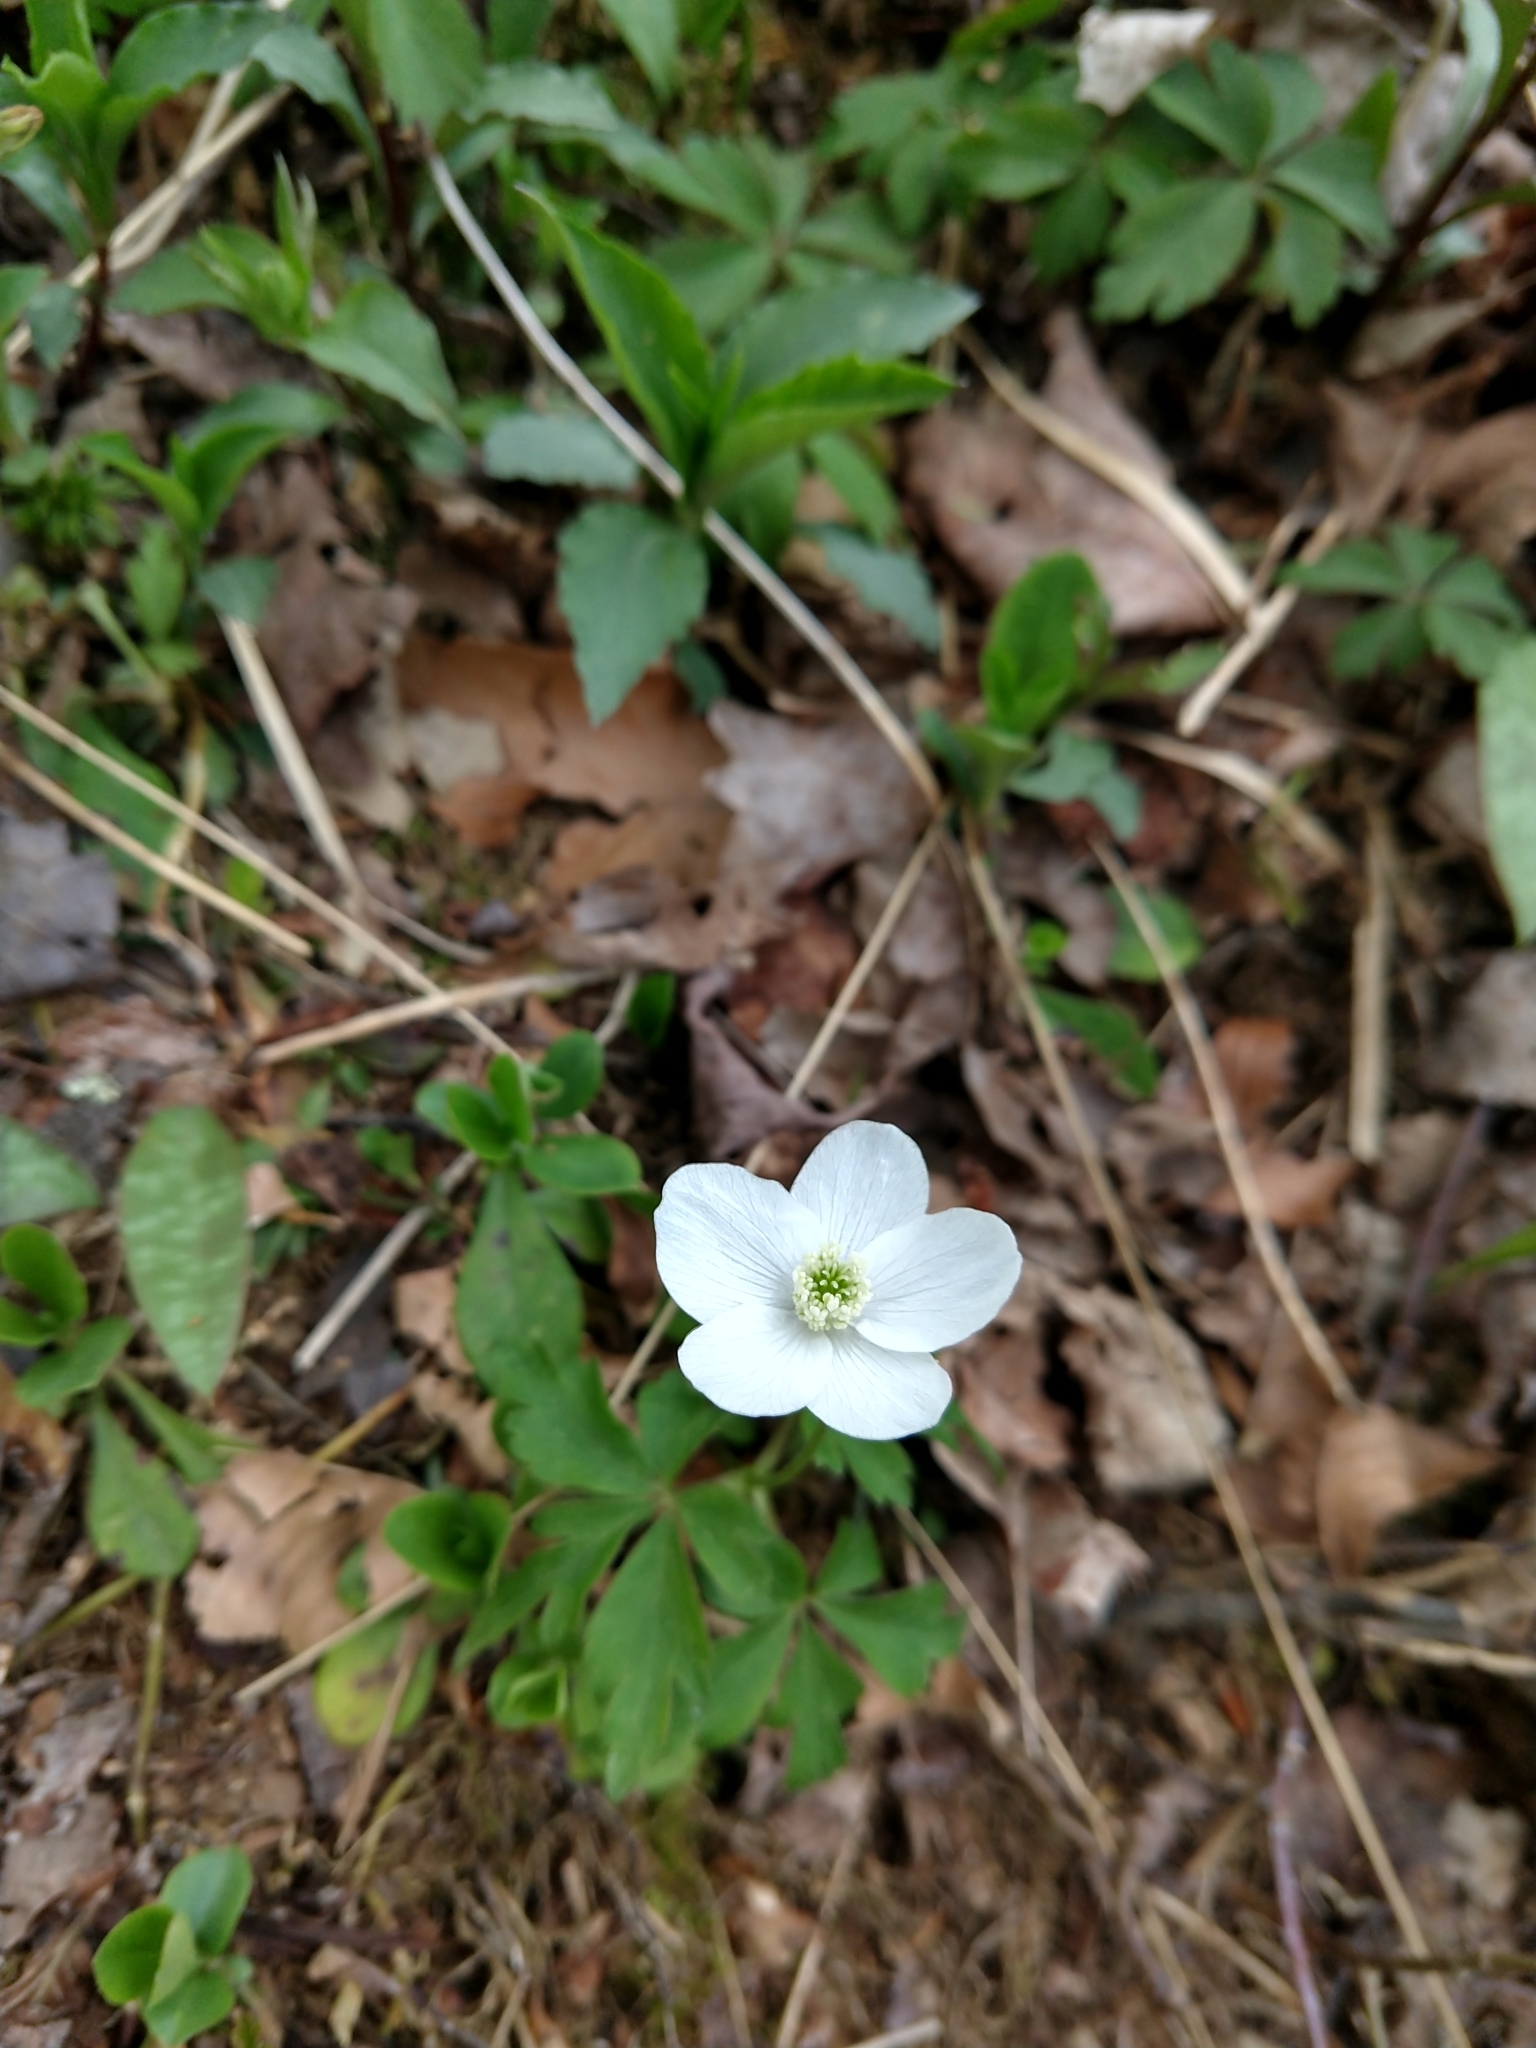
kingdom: Plantae
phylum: Tracheophyta
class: Magnoliopsida
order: Ranunculales
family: Ranunculaceae
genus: Anemone
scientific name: Anemone quinquefolia
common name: Wood anemone
